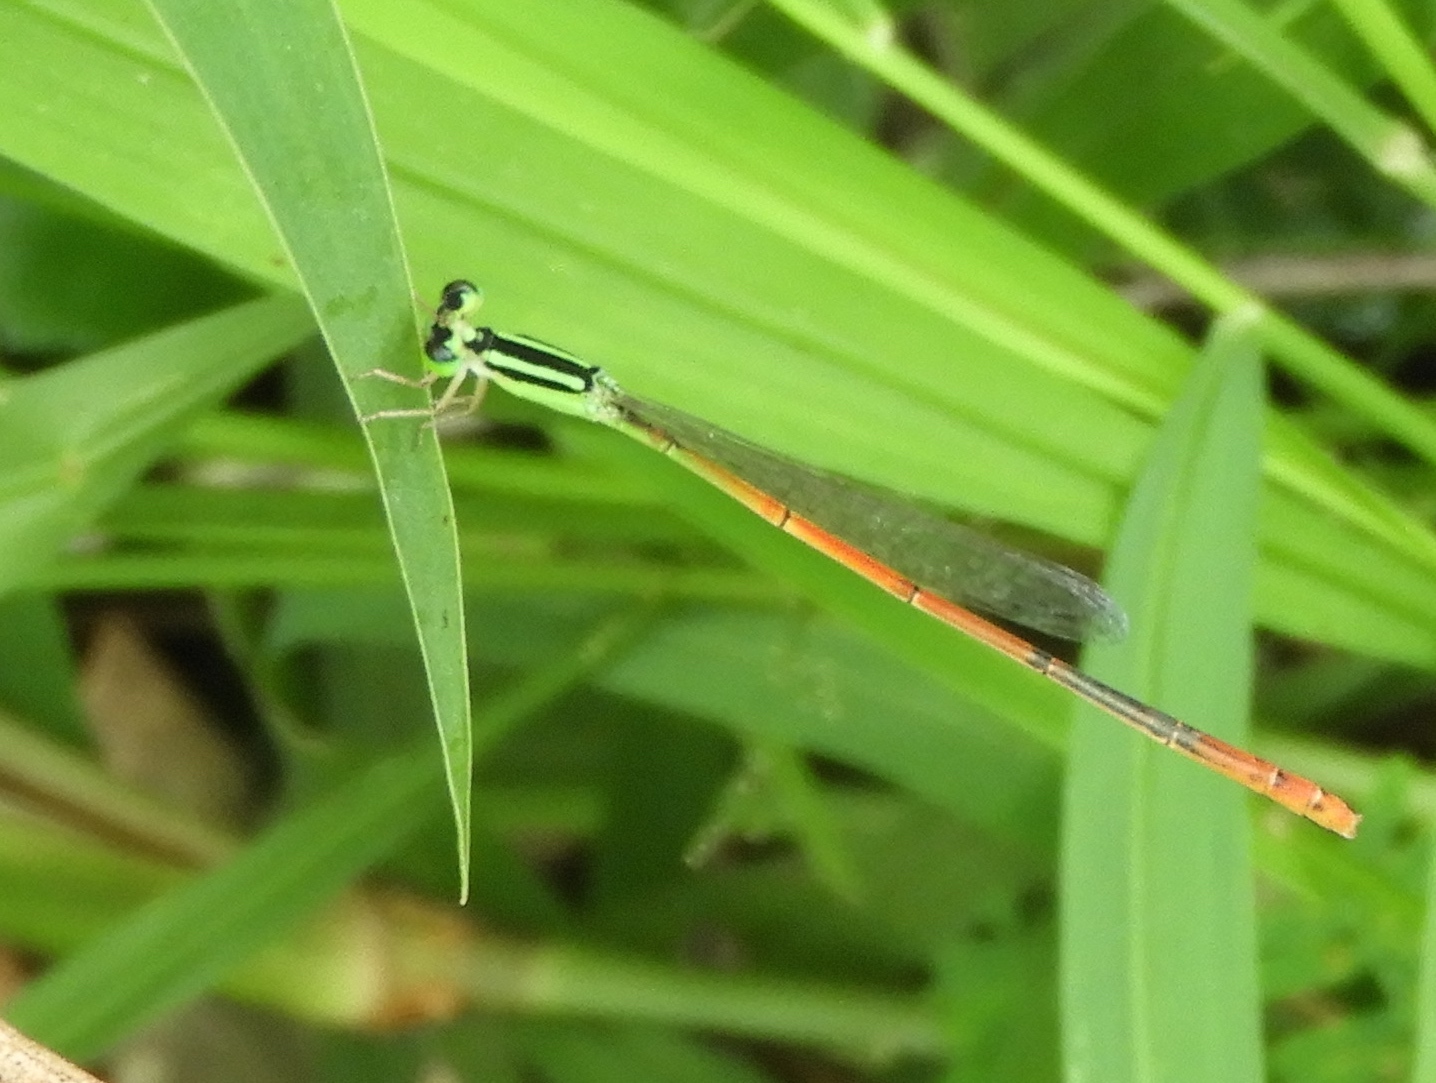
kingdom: Animalia
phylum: Arthropoda
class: Insecta
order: Odonata
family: Coenagrionidae
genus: Ischnura
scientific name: Ischnura hastata
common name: Citrine forktail
